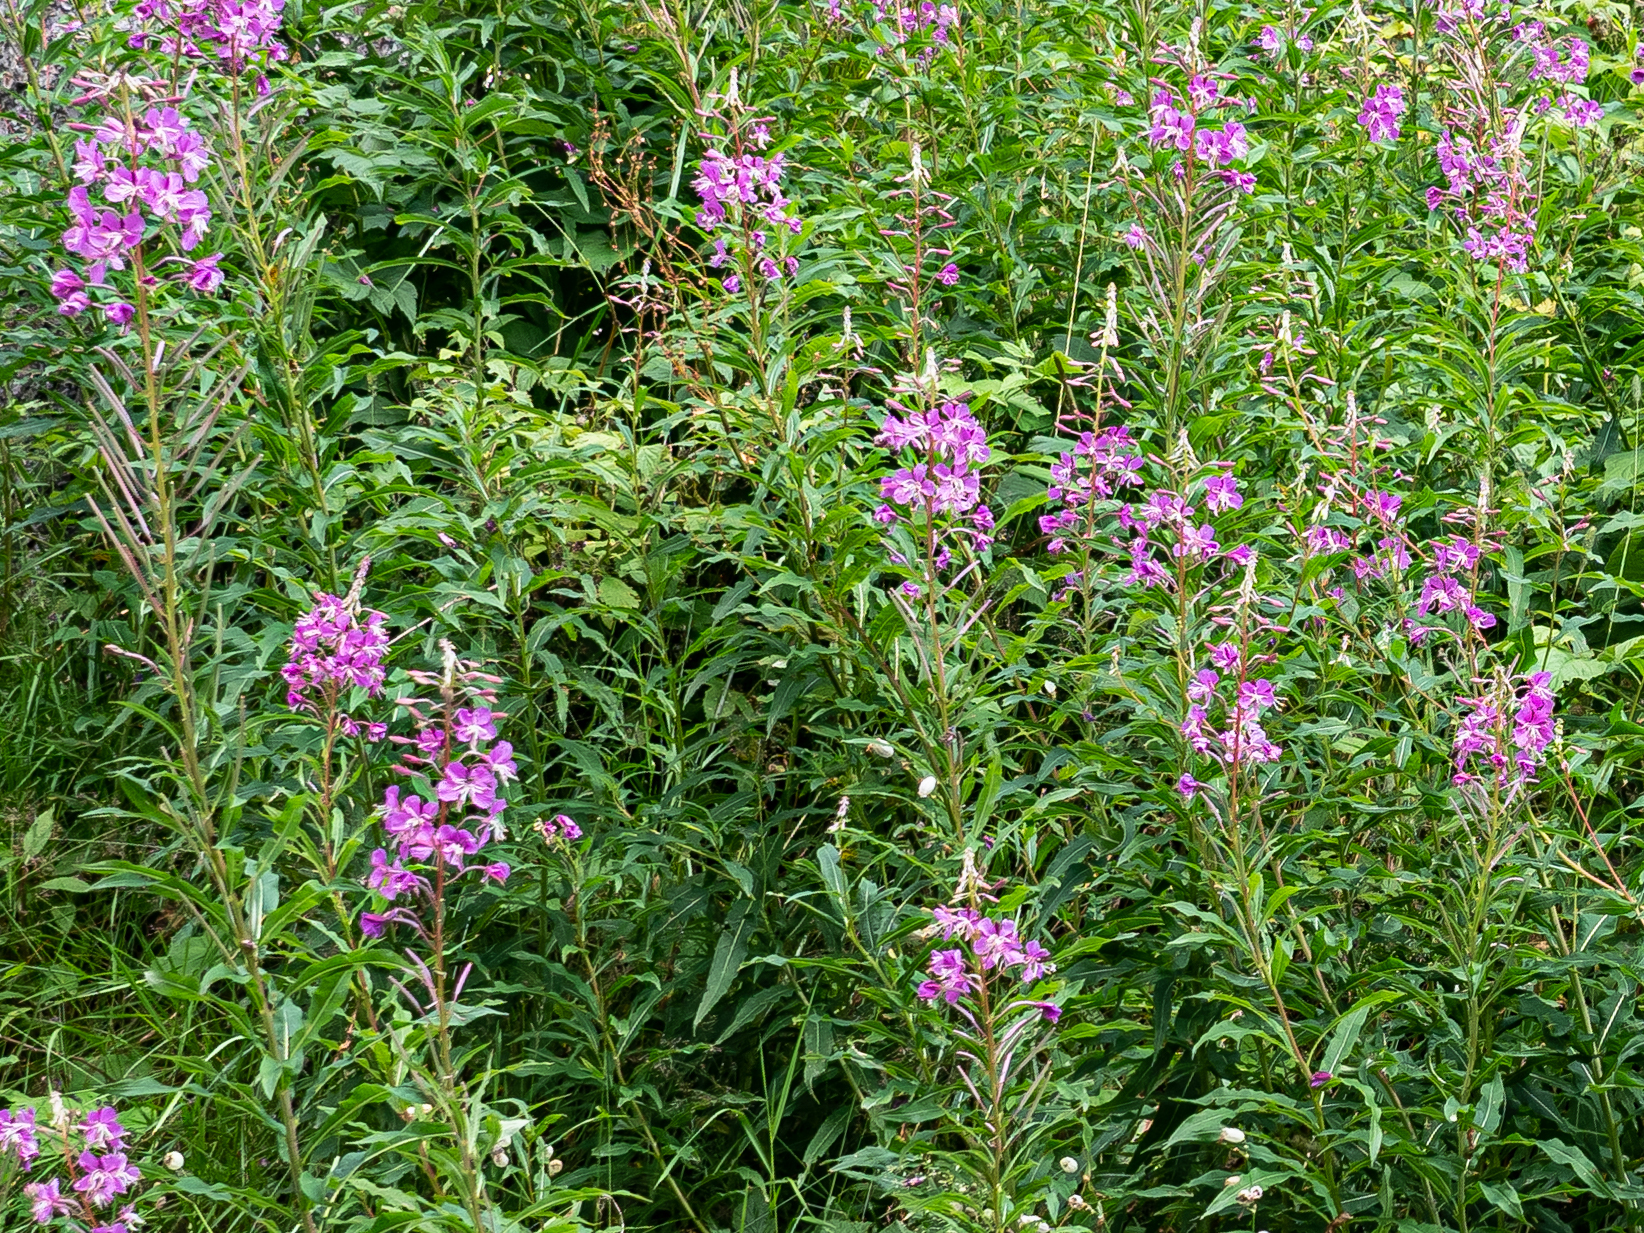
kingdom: Plantae
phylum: Tracheophyta
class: Magnoliopsida
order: Myrtales
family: Onagraceae
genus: Chamaenerion
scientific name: Chamaenerion angustifolium
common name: Fireweed
